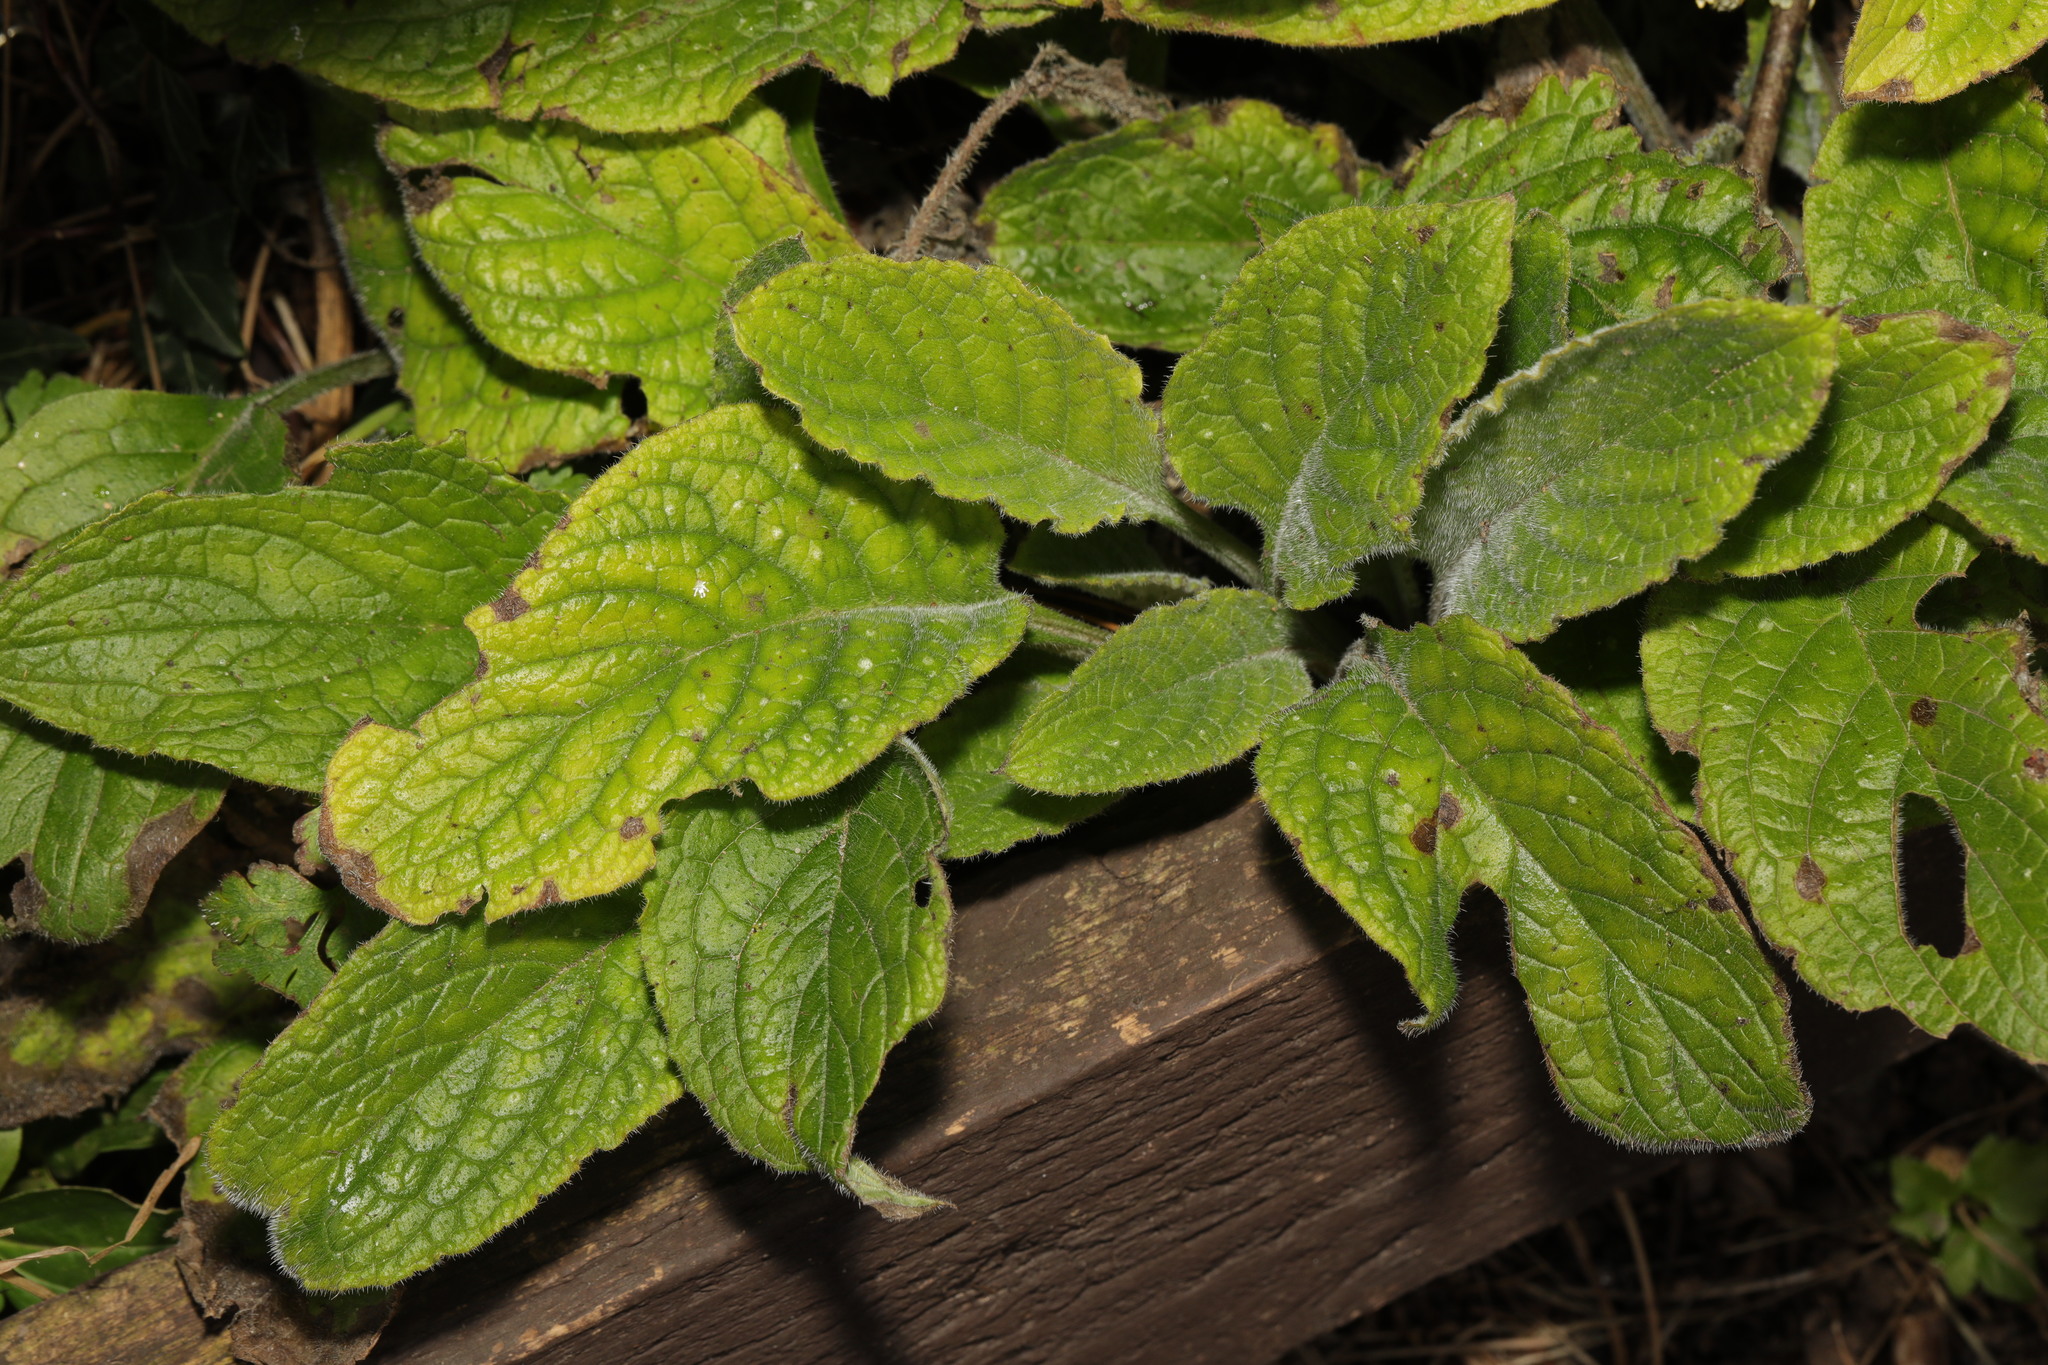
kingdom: Plantae
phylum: Tracheophyta
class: Magnoliopsida
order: Boraginales
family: Boraginaceae
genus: Pentaglottis
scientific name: Pentaglottis sempervirens
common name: Green alkanet
